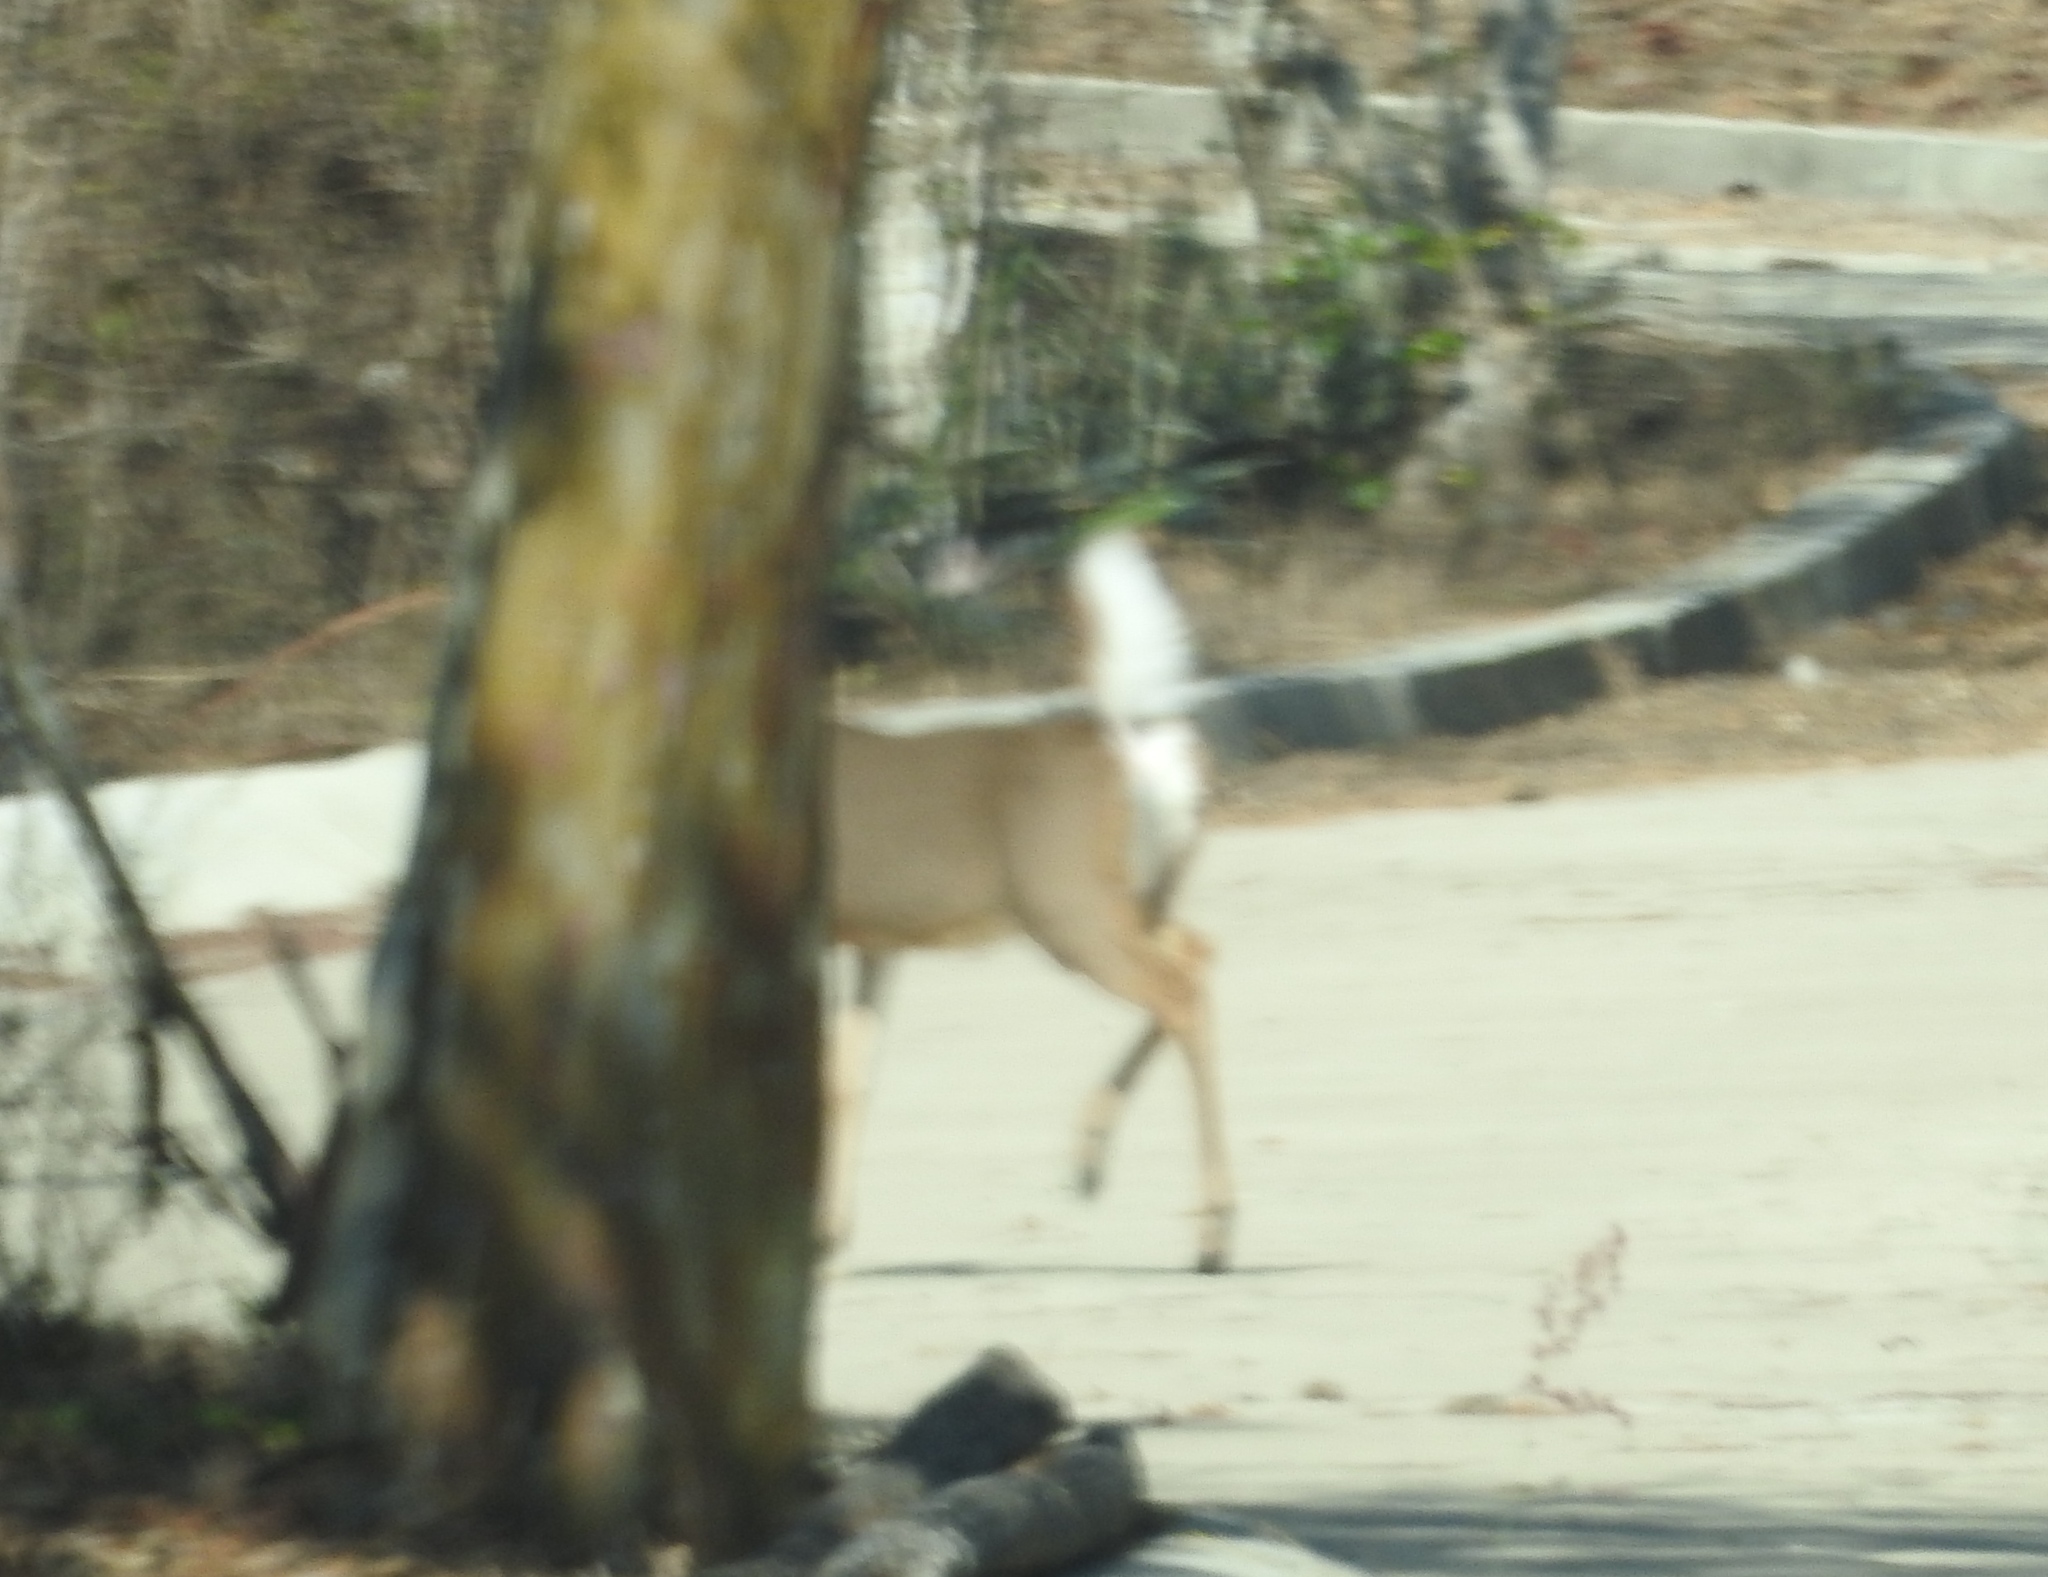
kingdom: Animalia
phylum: Chordata
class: Mammalia
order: Artiodactyla
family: Cervidae
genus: Odocoileus
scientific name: Odocoileus virginianus
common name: White-tailed deer
